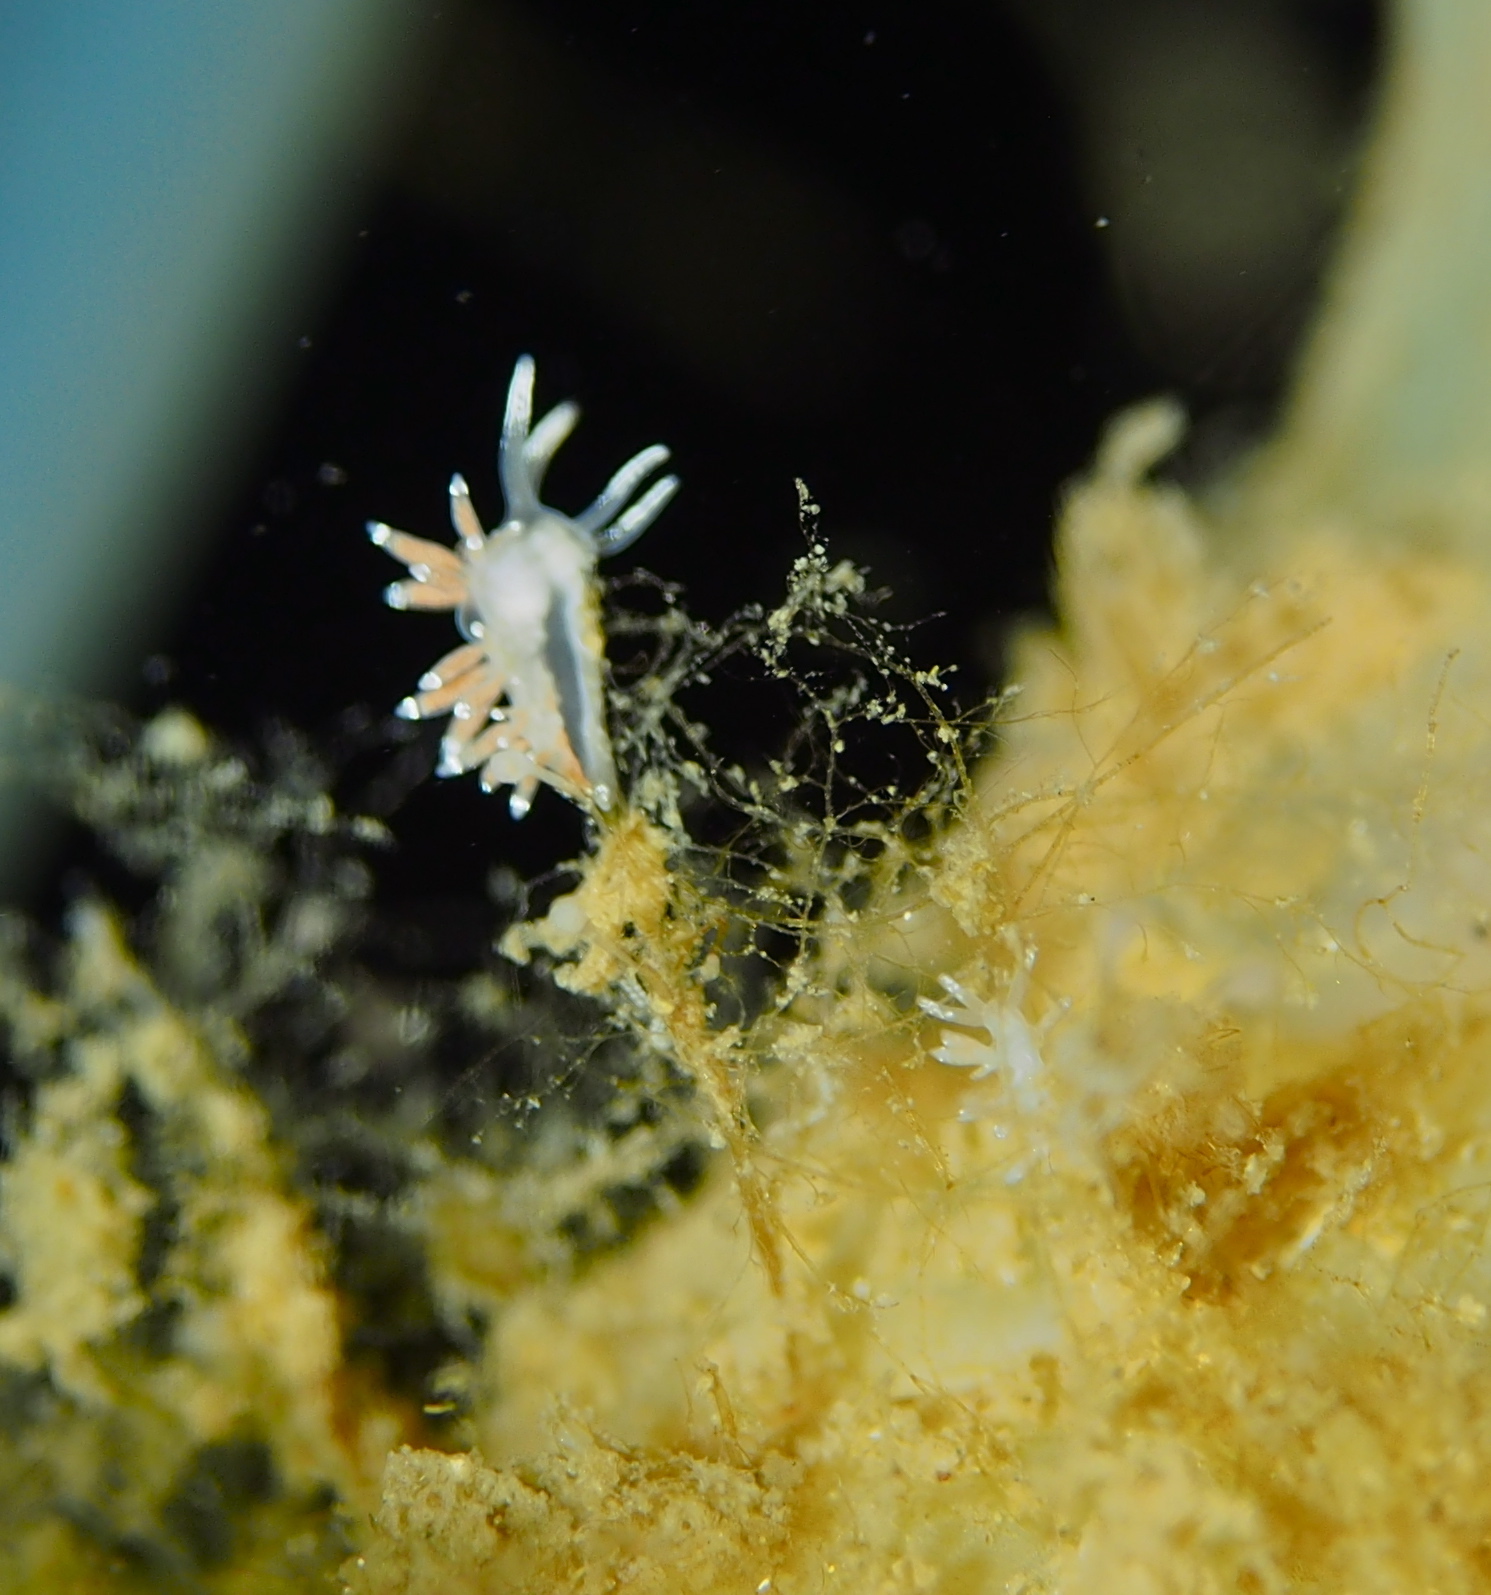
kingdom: Animalia
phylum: Mollusca
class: Gastropoda
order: Nudibranchia
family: Coryphellidae
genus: Coryphella
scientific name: Coryphella gracilis
